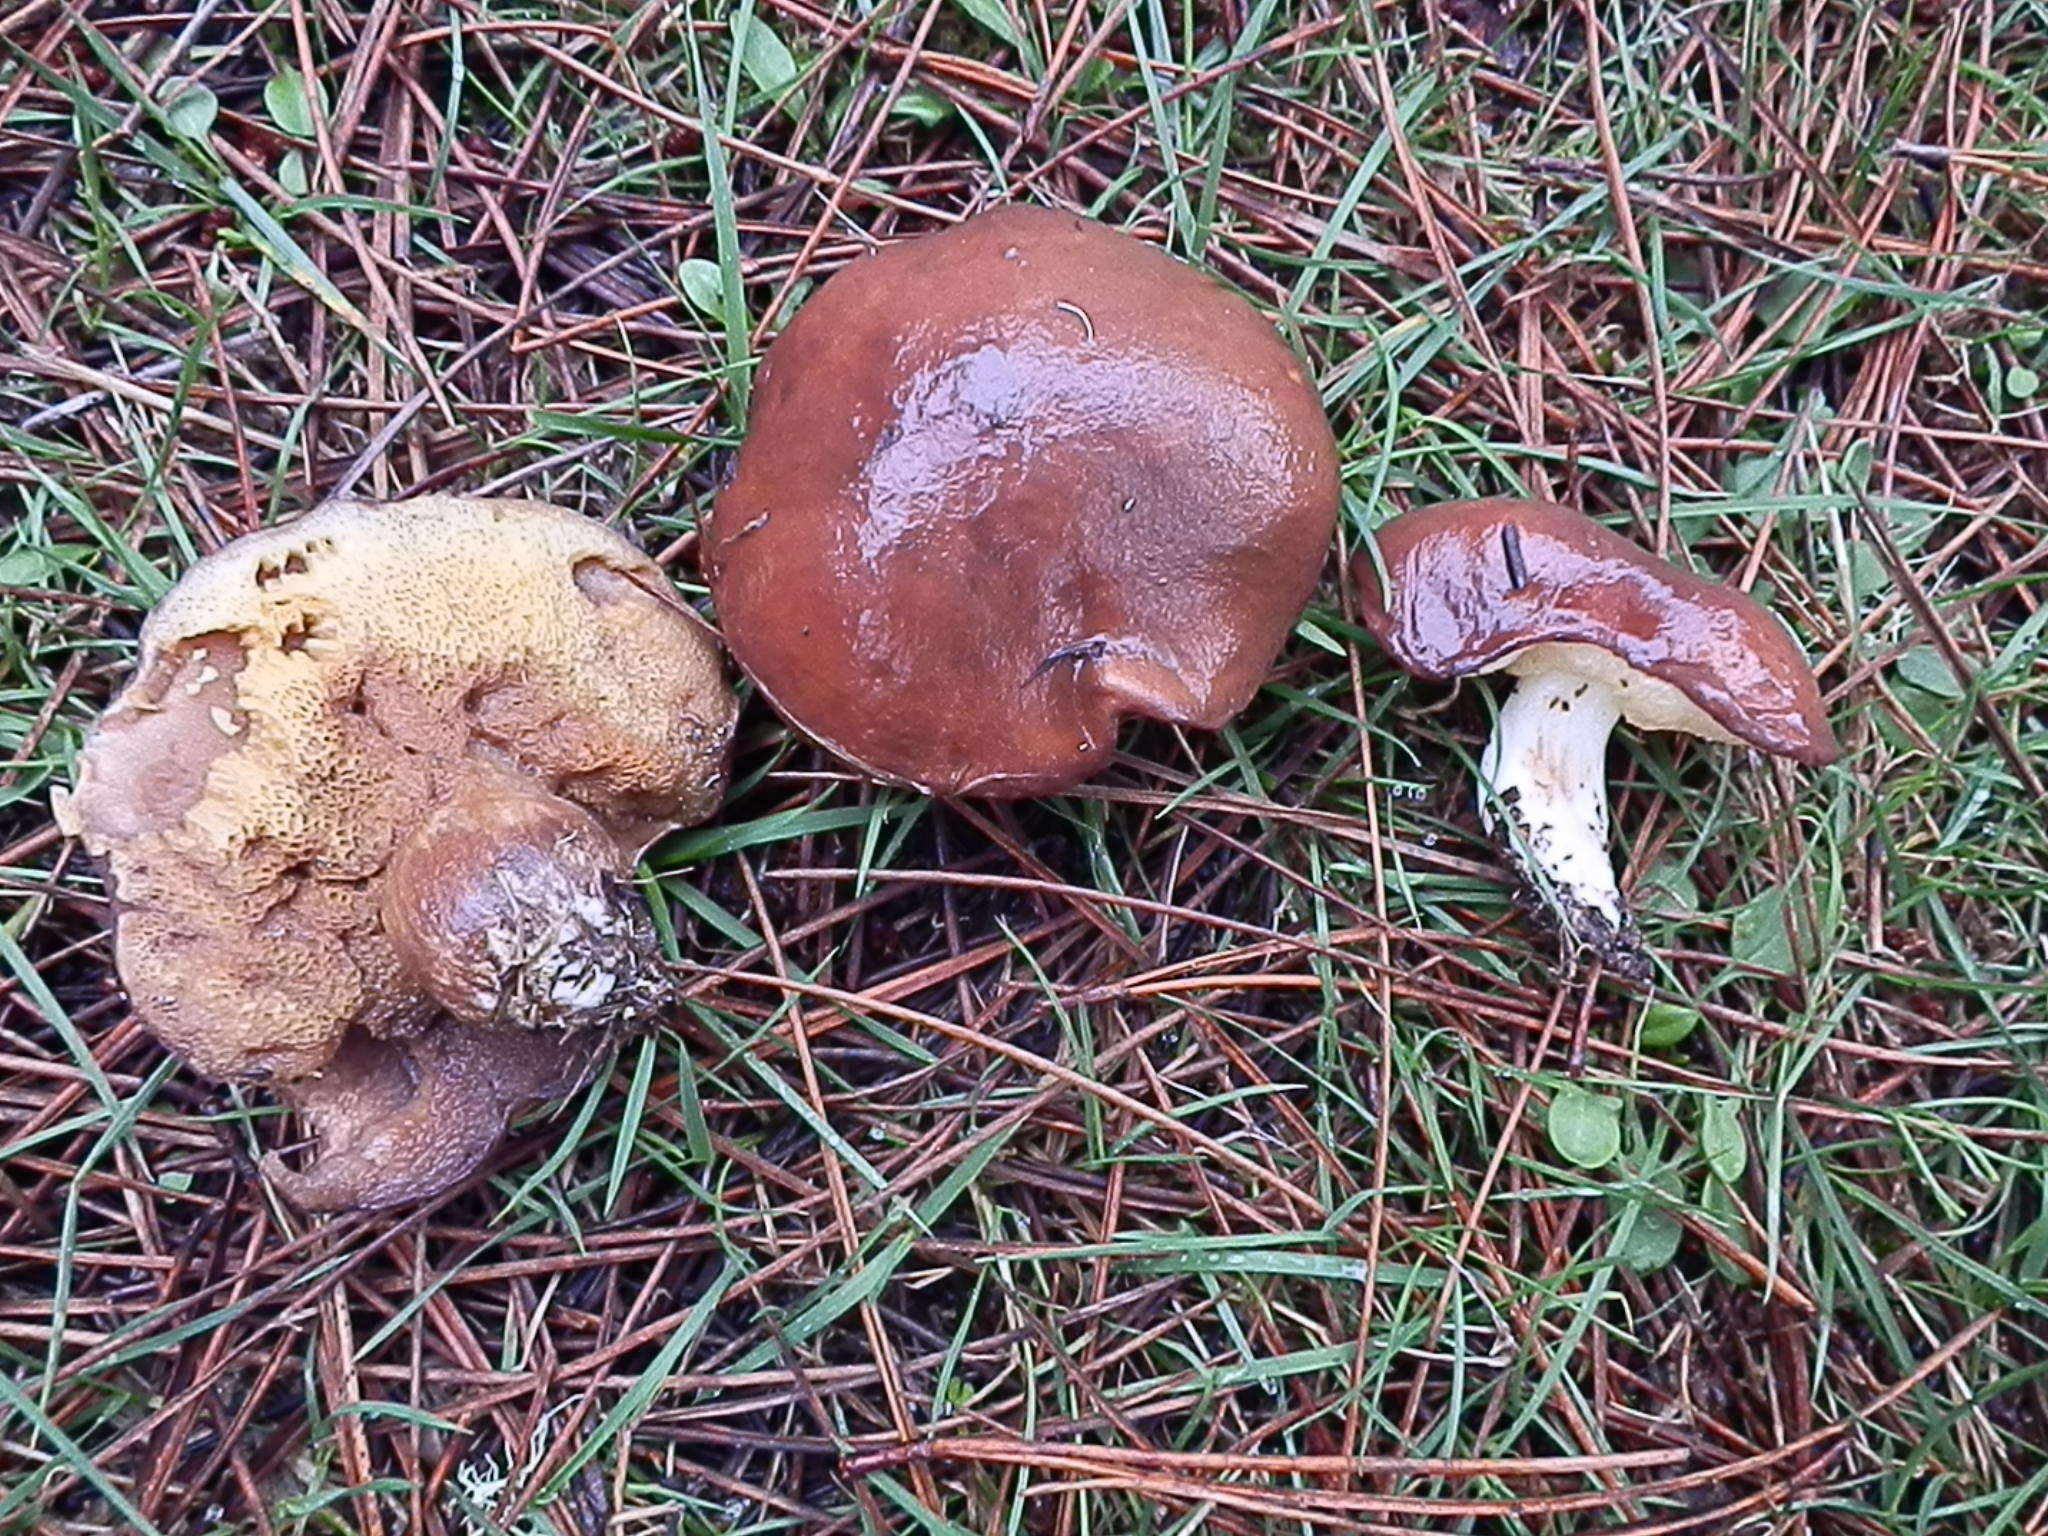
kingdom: Fungi
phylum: Basidiomycota
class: Agaricomycetes
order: Boletales
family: Suillaceae
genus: Suillus
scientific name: Suillus brevipes
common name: Short-stalked suillus
